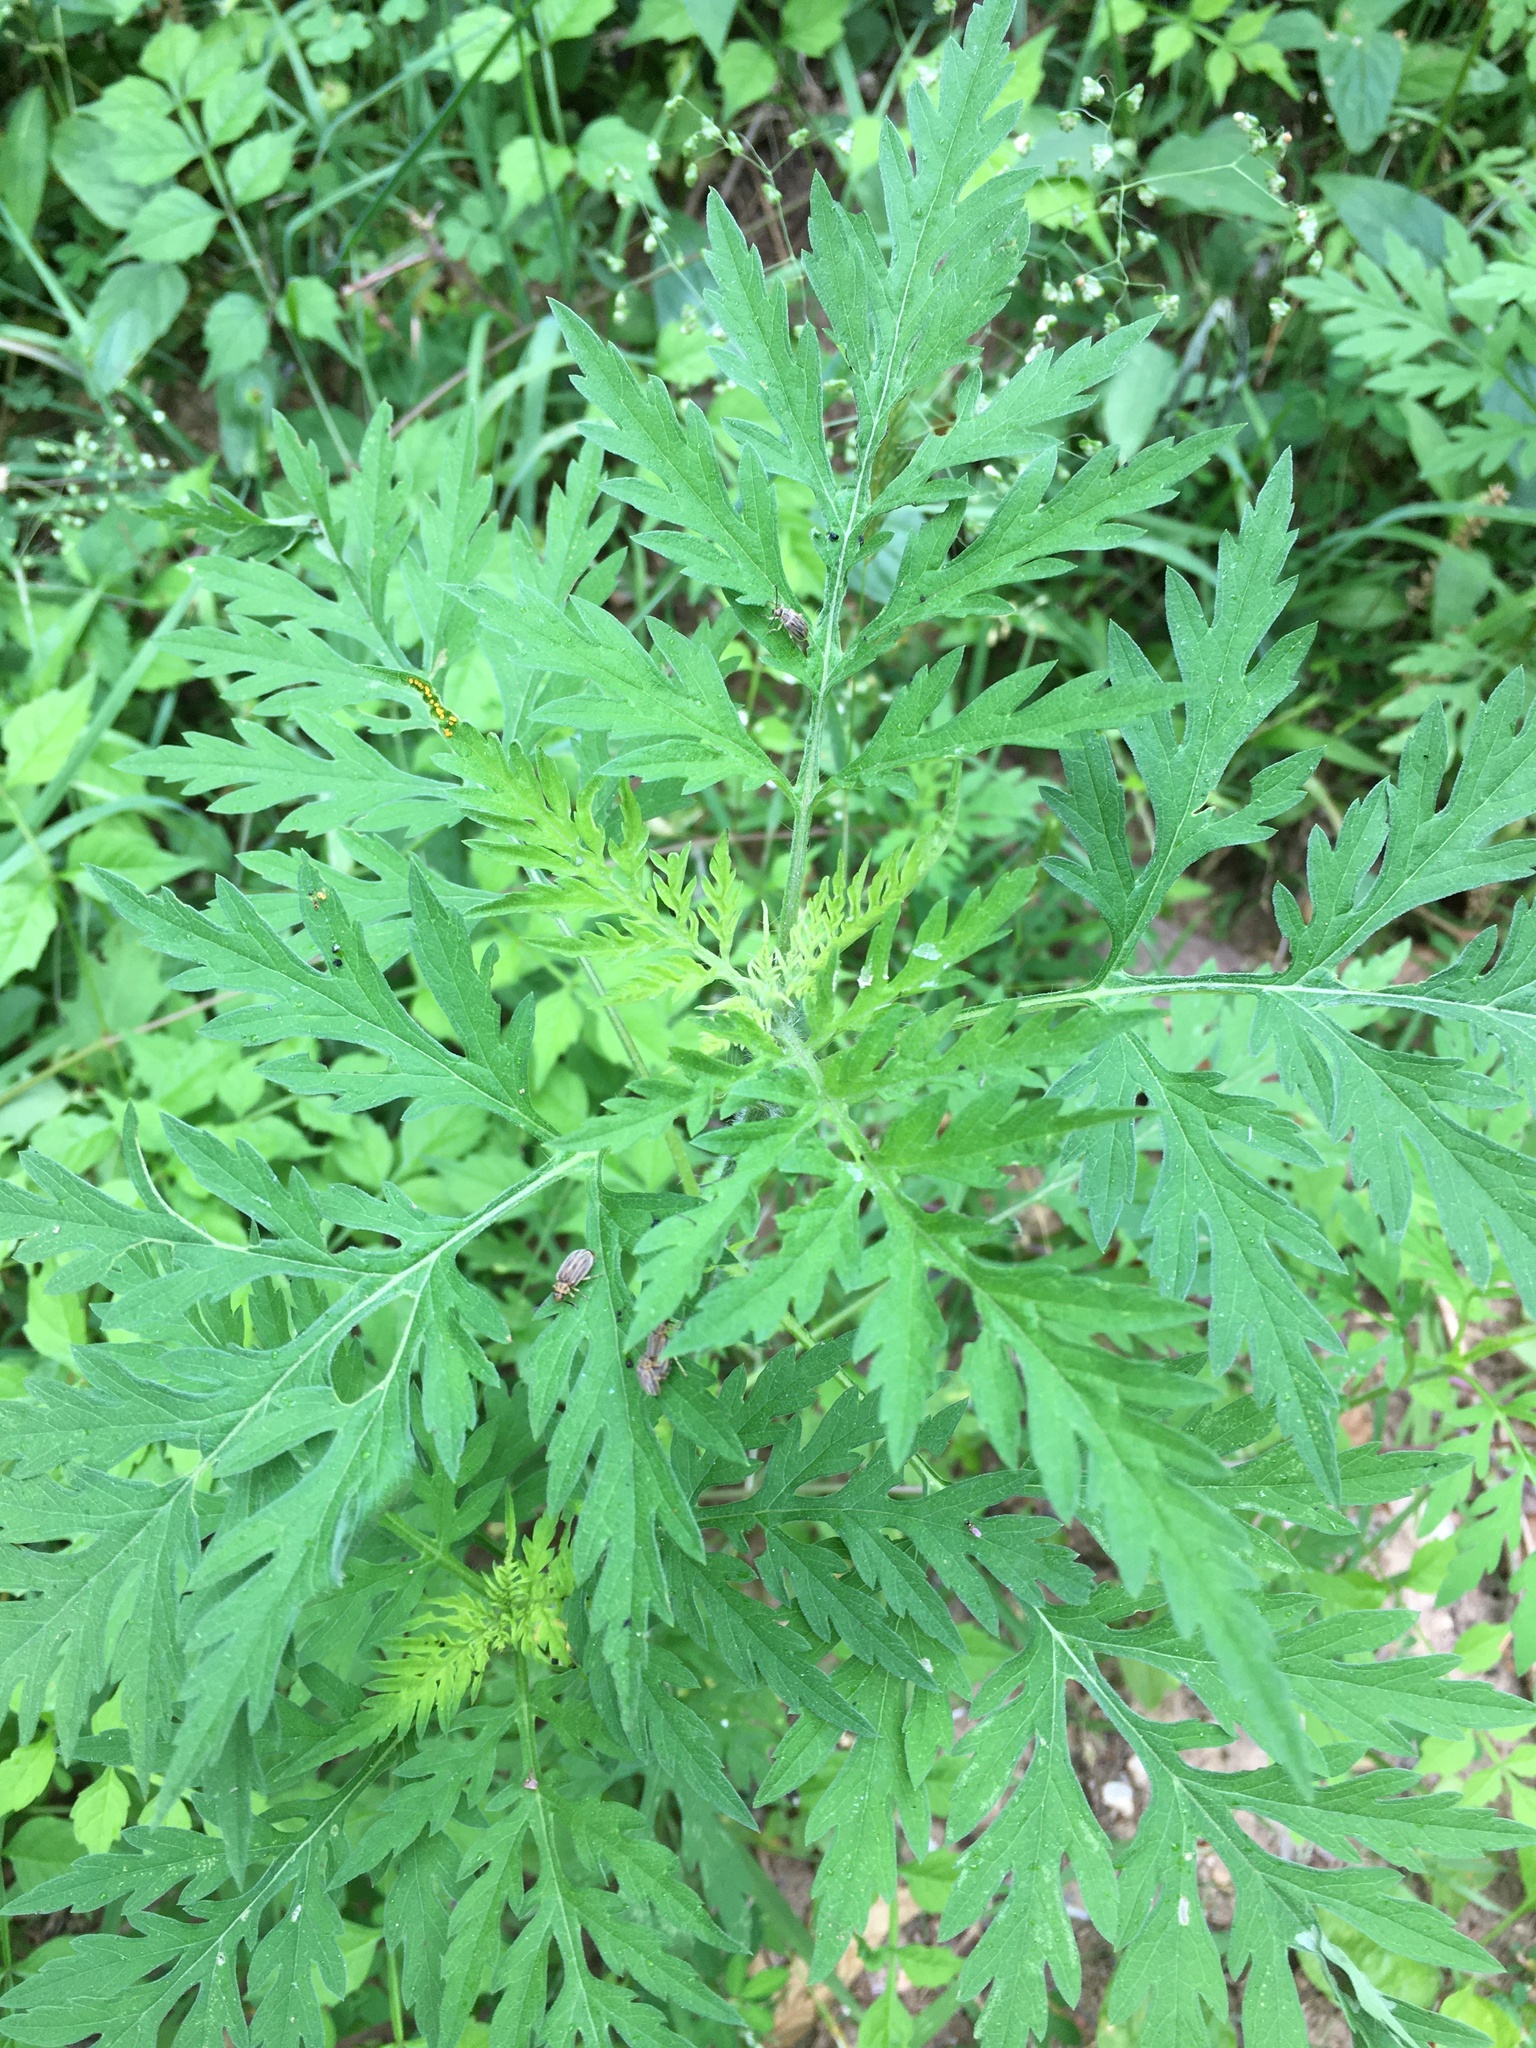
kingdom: Plantae
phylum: Tracheophyta
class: Magnoliopsida
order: Asterales
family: Asteraceae
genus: Ambrosia
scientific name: Ambrosia artemisiifolia
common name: Annual ragweed
